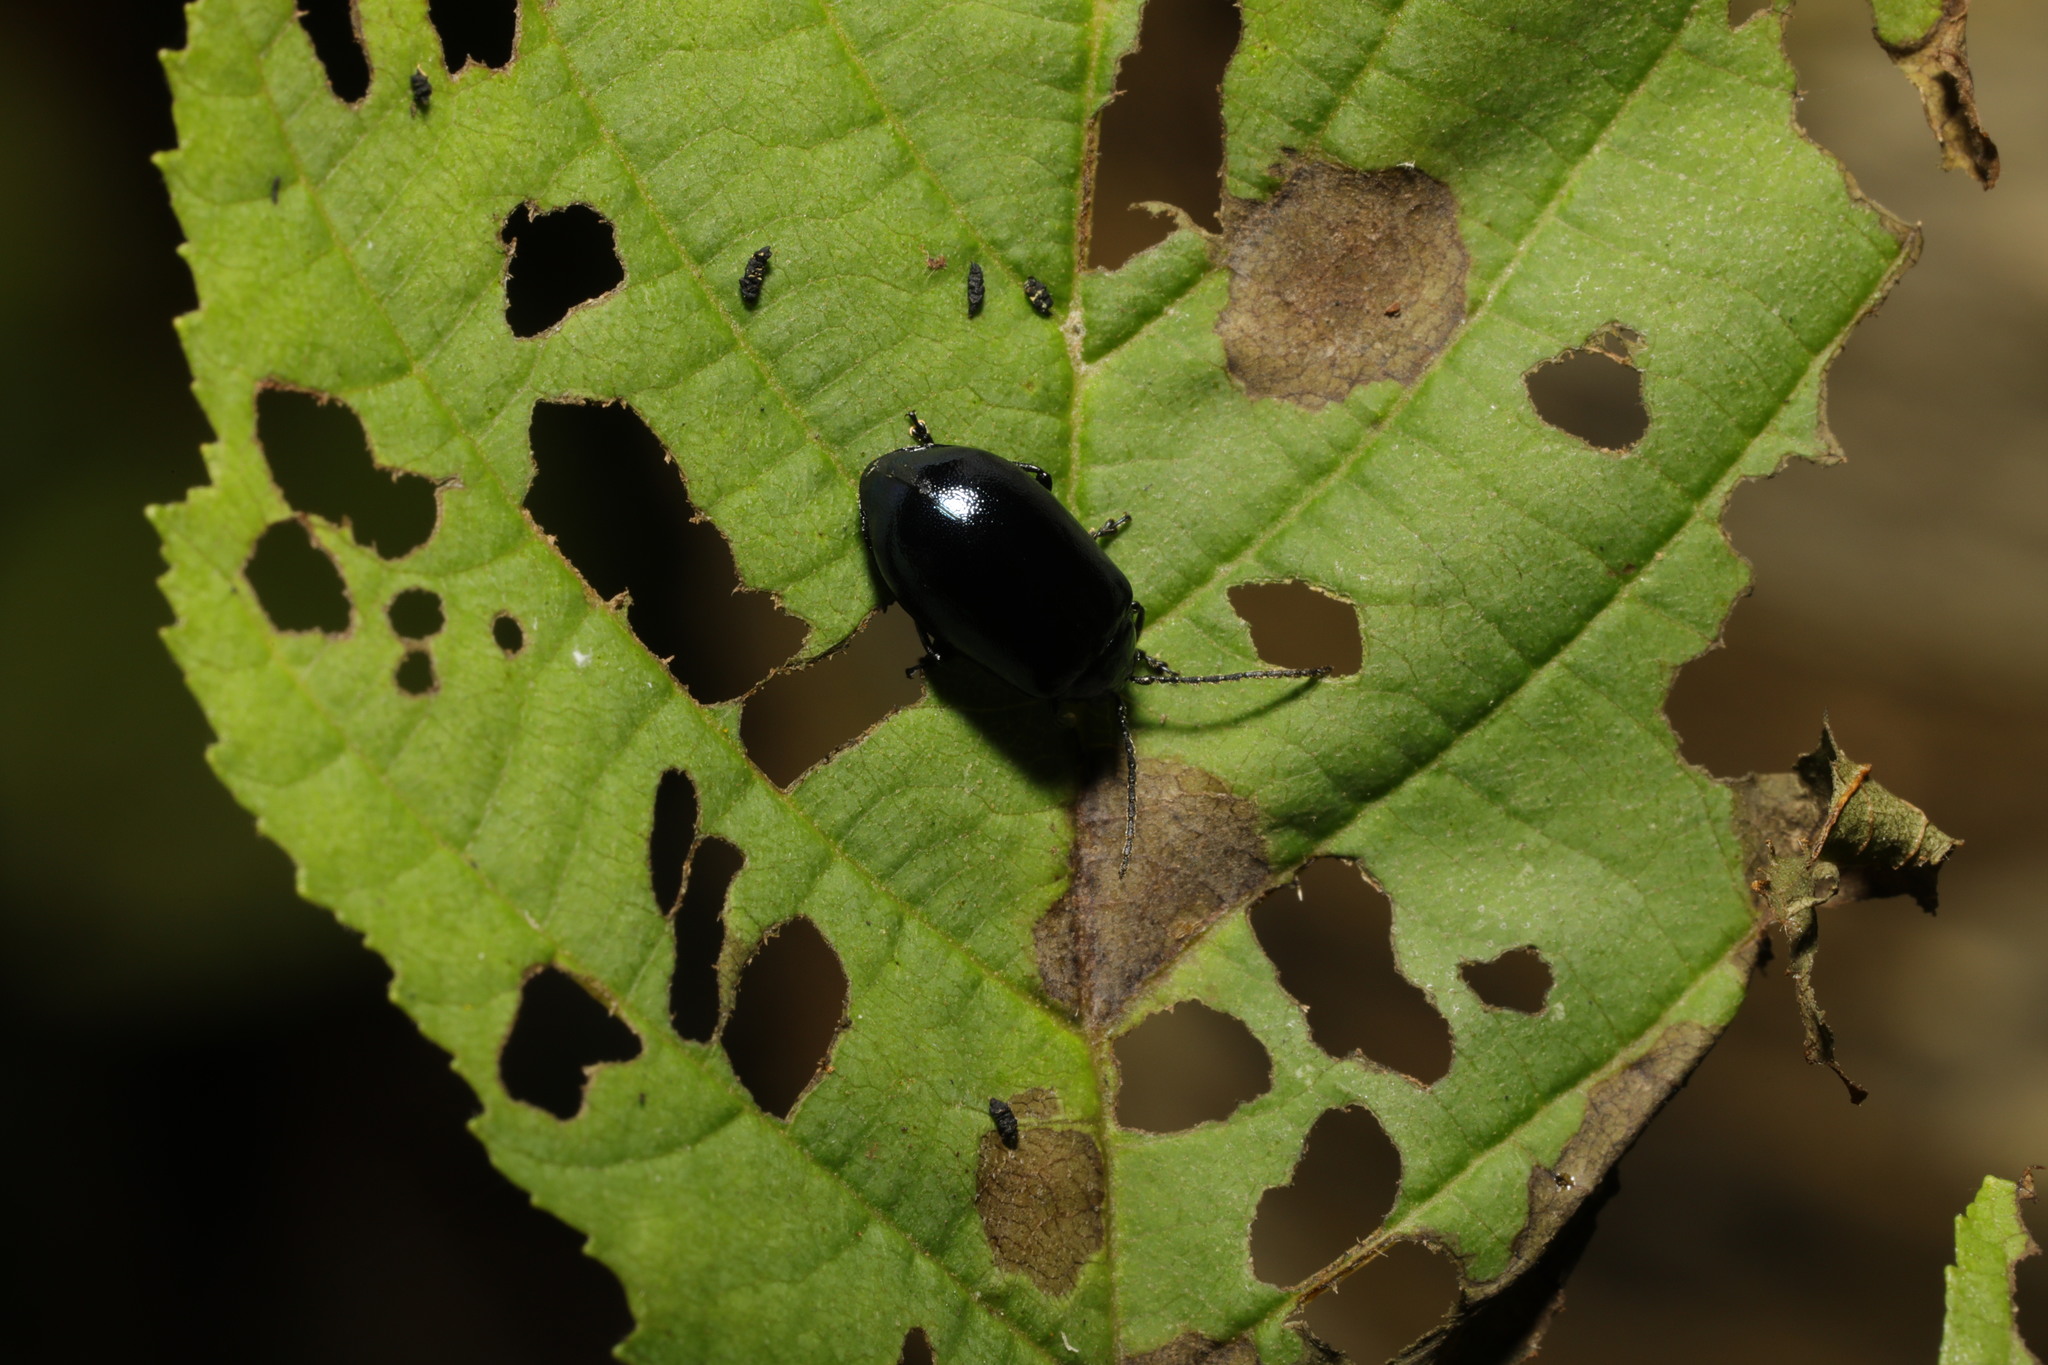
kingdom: Animalia
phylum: Arthropoda
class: Insecta
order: Coleoptera
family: Chrysomelidae
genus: Agelastica
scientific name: Agelastica alni
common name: Alder leaf beetle
